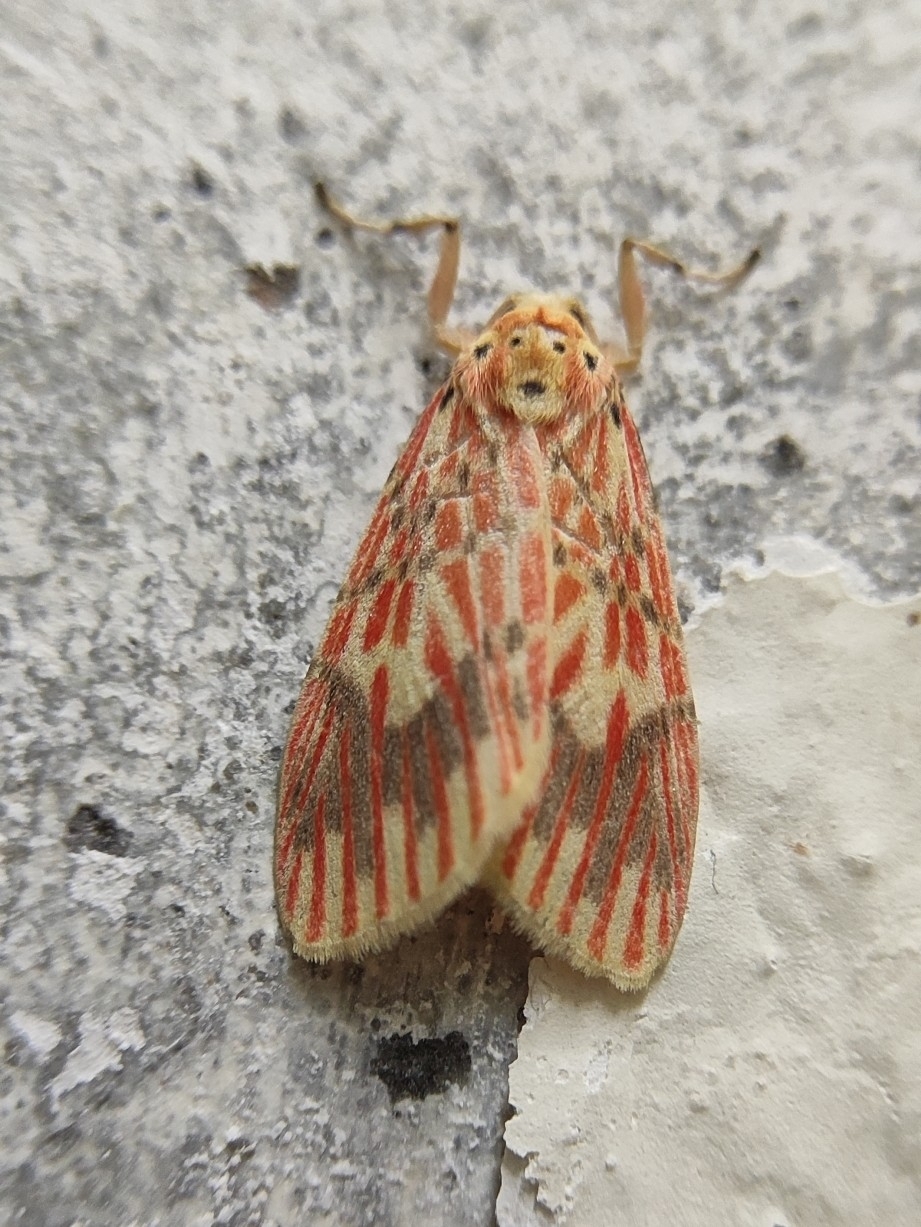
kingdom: Animalia
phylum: Arthropoda
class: Insecta
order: Lepidoptera
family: Erebidae
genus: Barsine
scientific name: Barsine defecta
